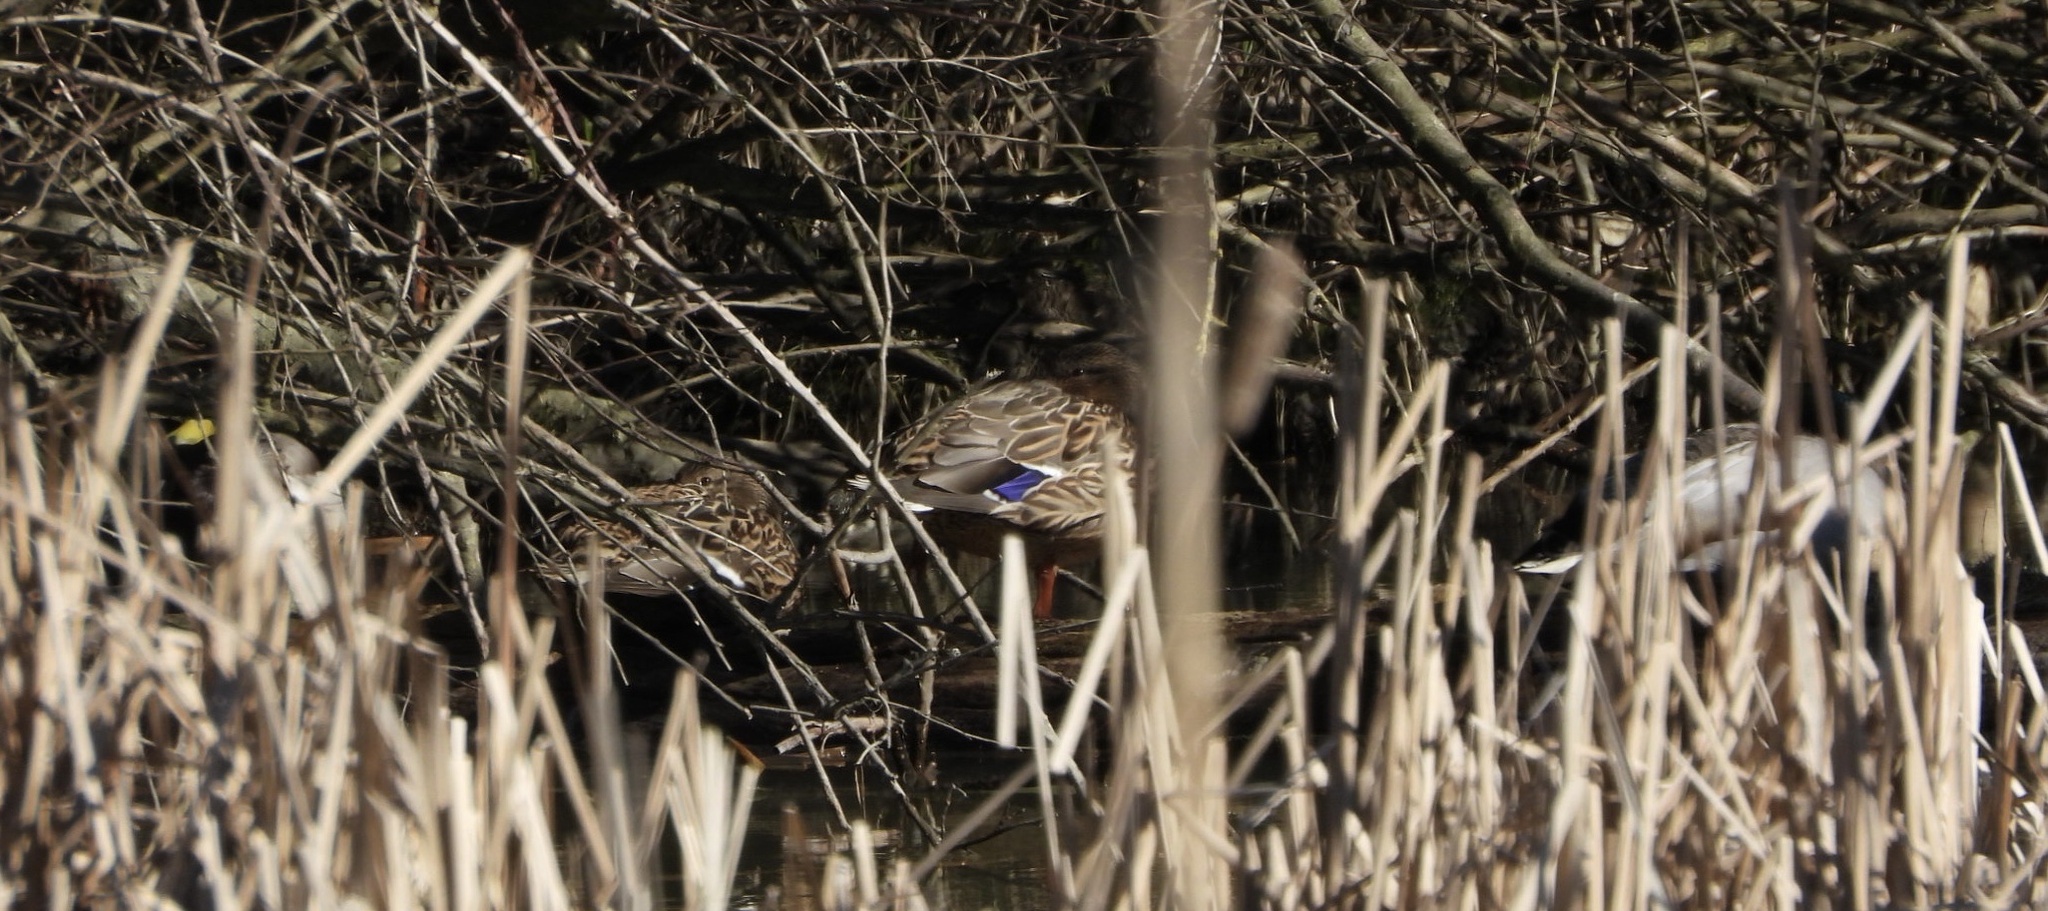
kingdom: Animalia
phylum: Chordata
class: Aves
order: Anseriformes
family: Anatidae
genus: Anas
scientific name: Anas platyrhynchos
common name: Mallard
